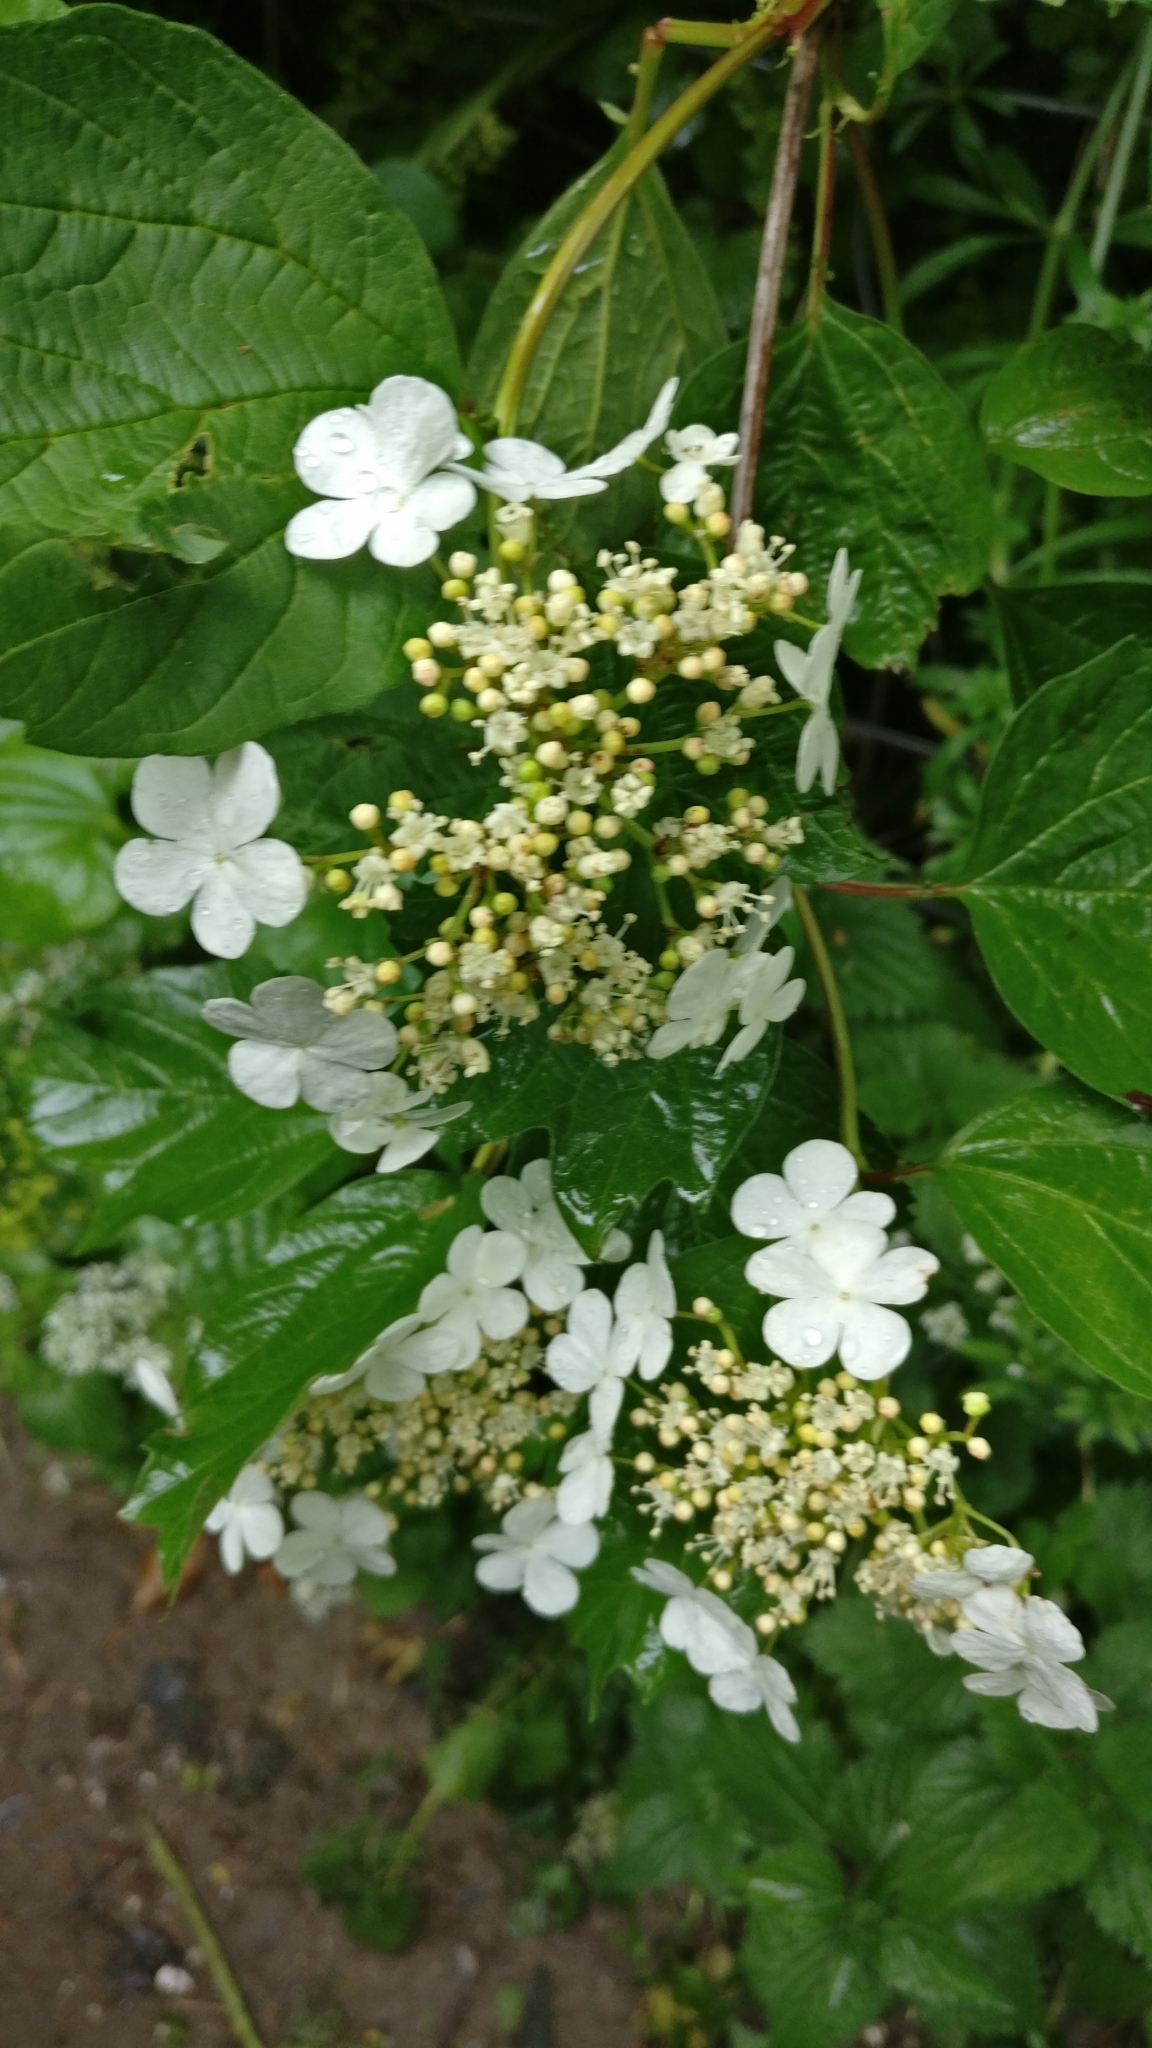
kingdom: Plantae
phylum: Tracheophyta
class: Magnoliopsida
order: Dipsacales
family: Viburnaceae
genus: Viburnum
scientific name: Viburnum opulus
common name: Guelder-rose
